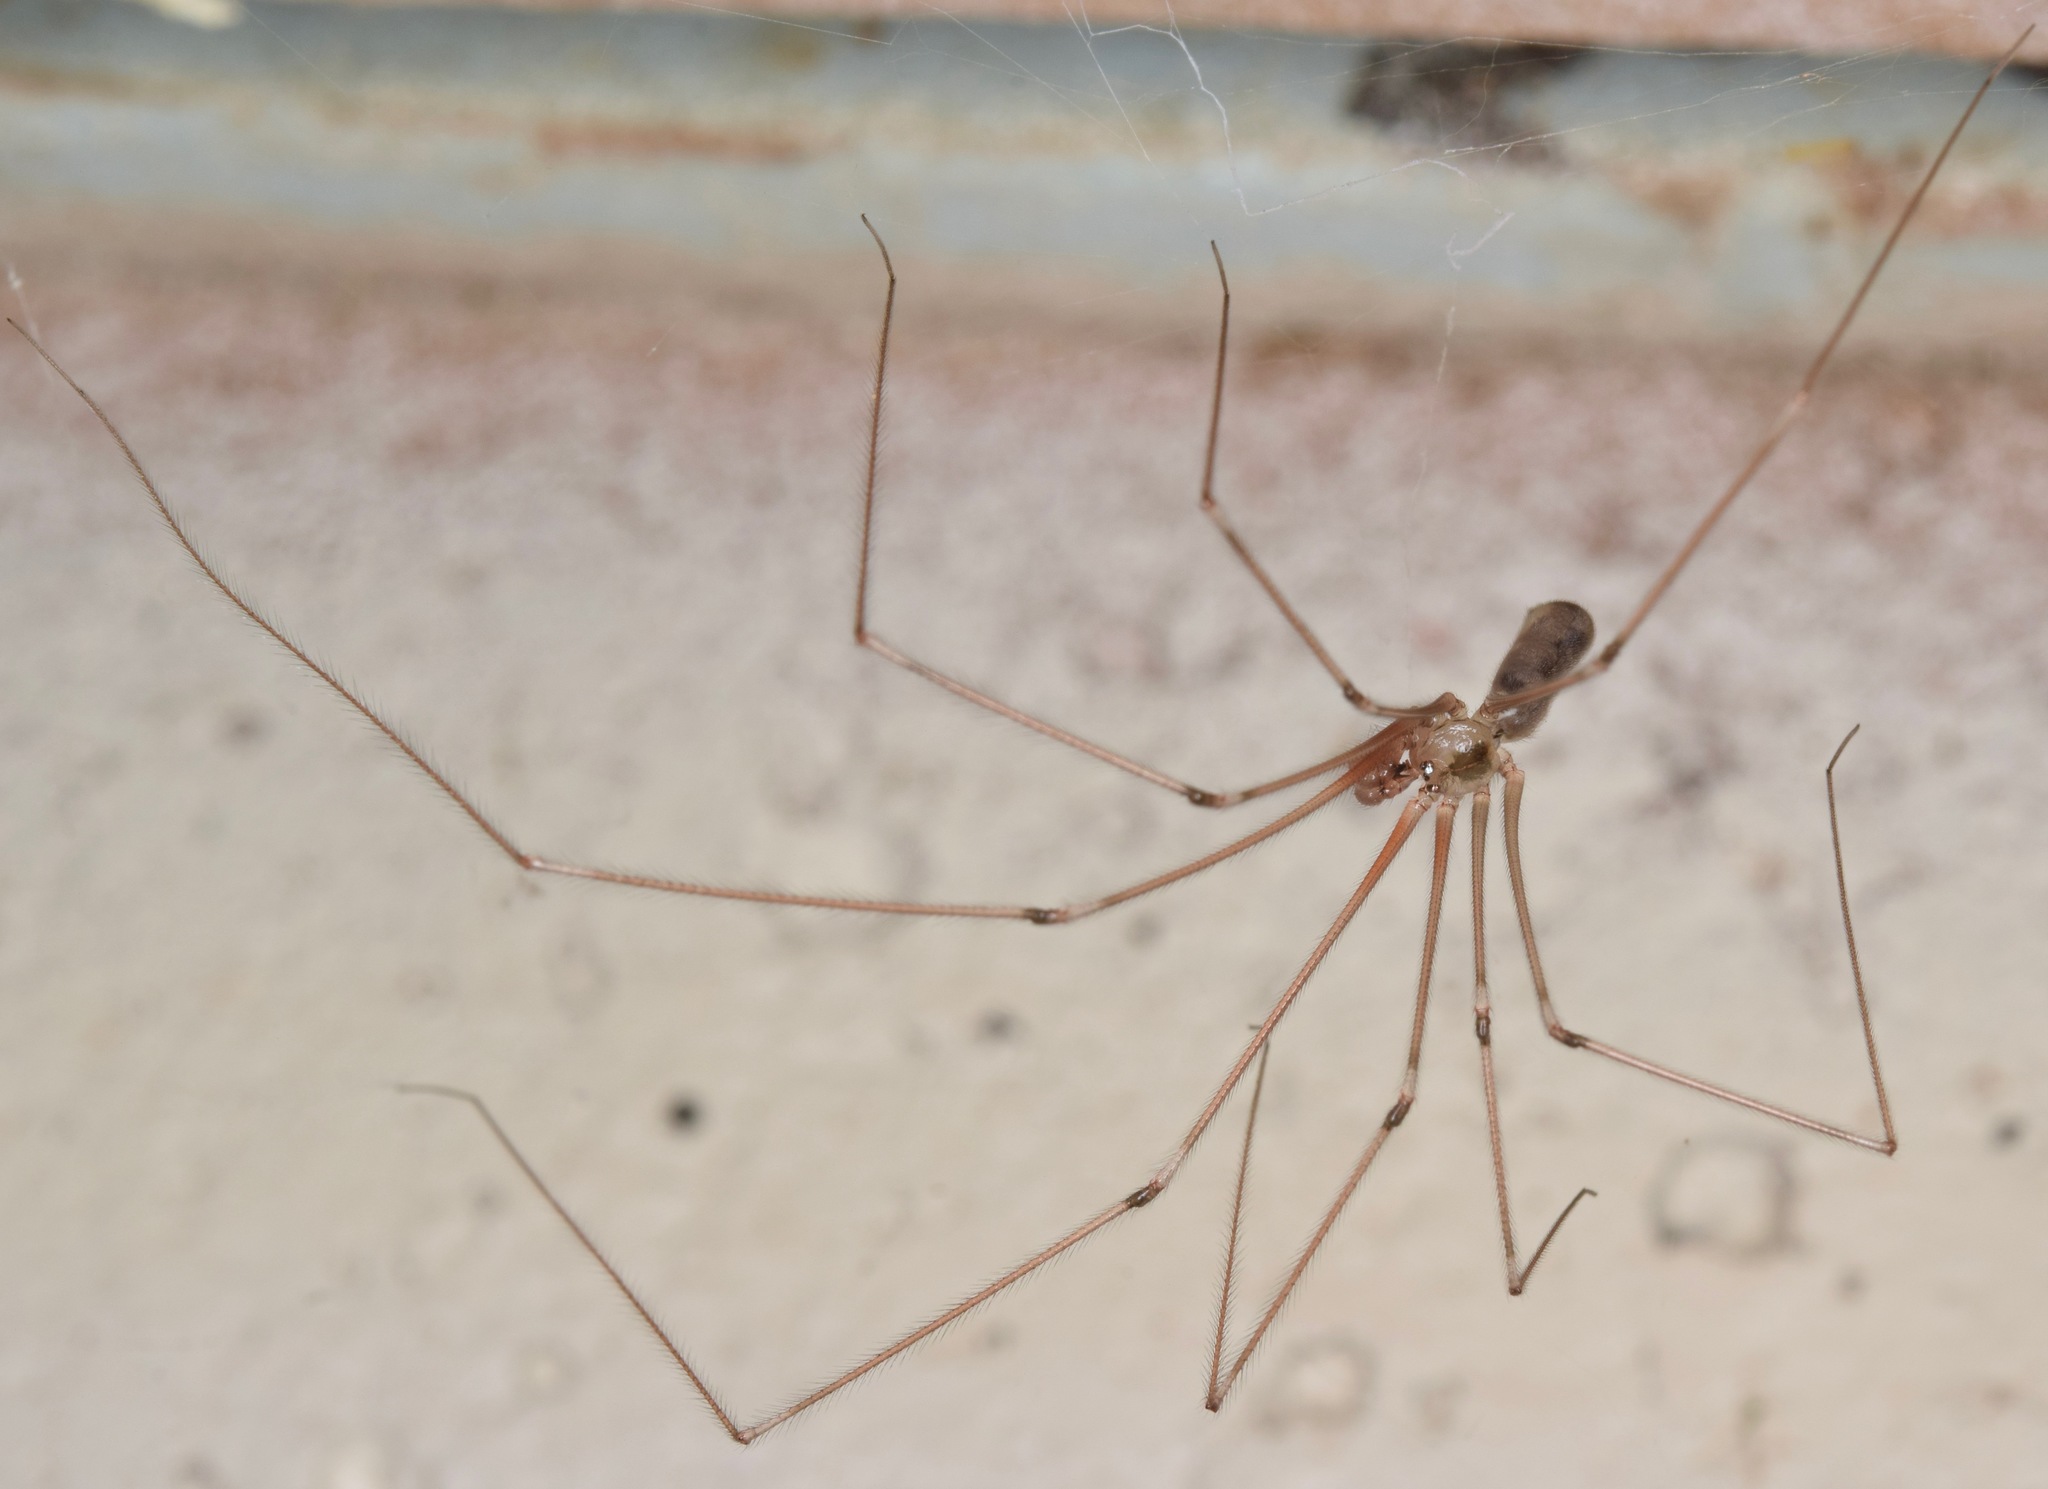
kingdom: Animalia
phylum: Arthropoda
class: Arachnida
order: Araneae
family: Pholcidae
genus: Pholcus
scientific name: Pholcus phalangioides
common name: Longbodied cellar spider
